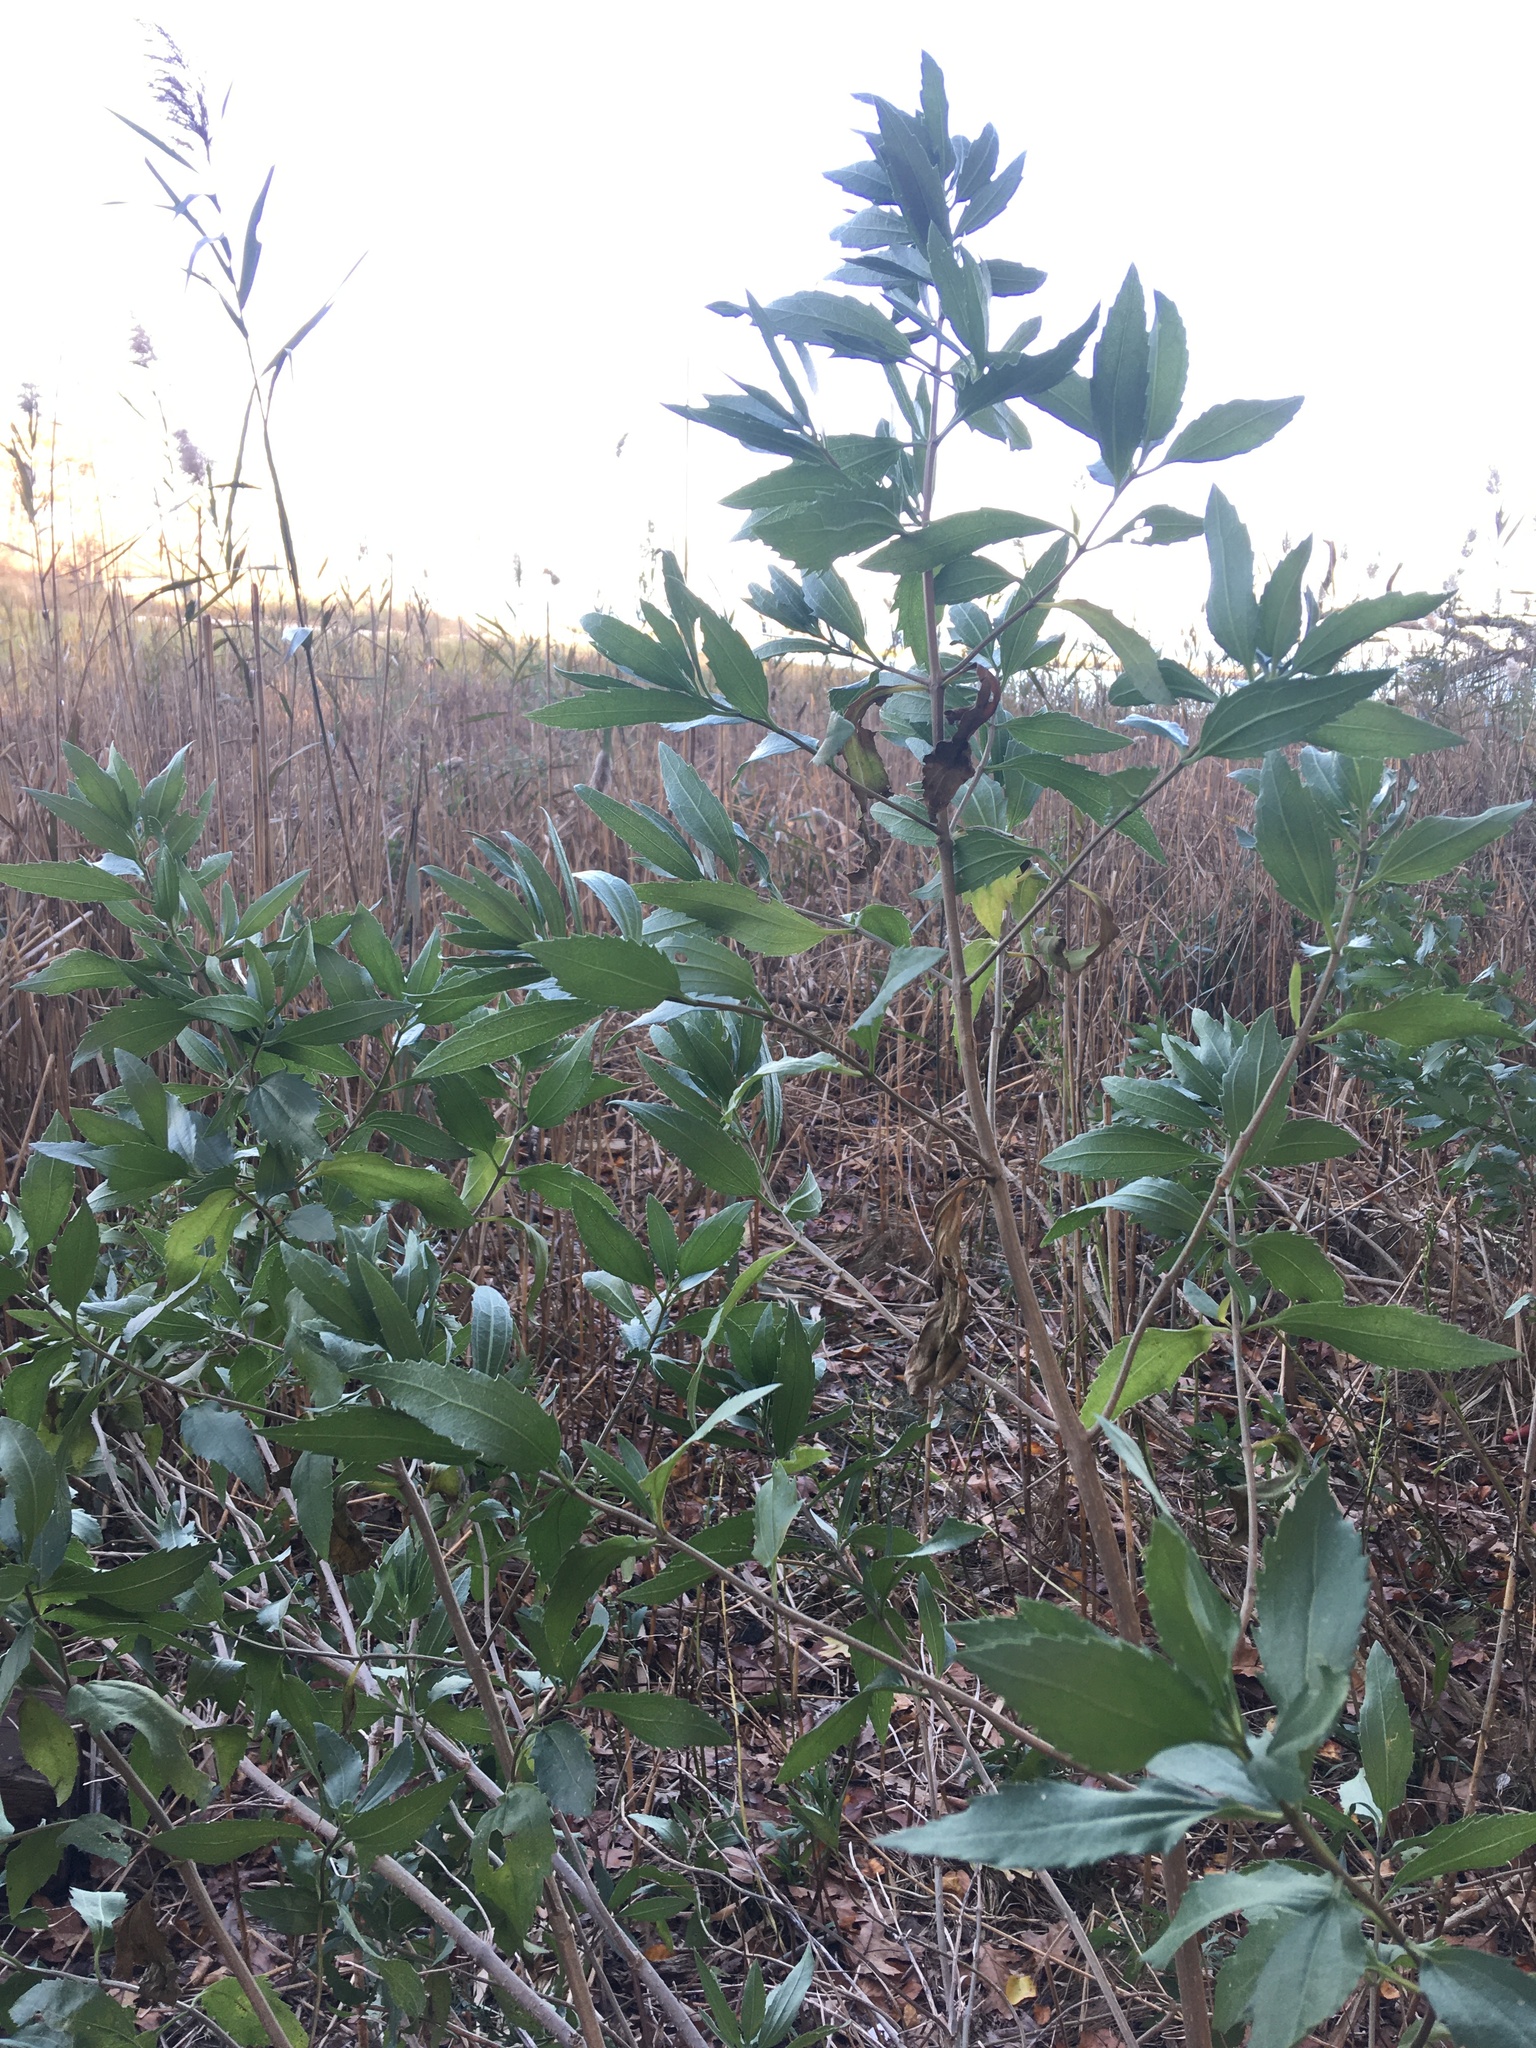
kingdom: Plantae
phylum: Tracheophyta
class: Magnoliopsida
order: Asterales
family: Asteraceae
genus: Iva
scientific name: Iva frutescens
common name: Big-leaved marsh-elder
